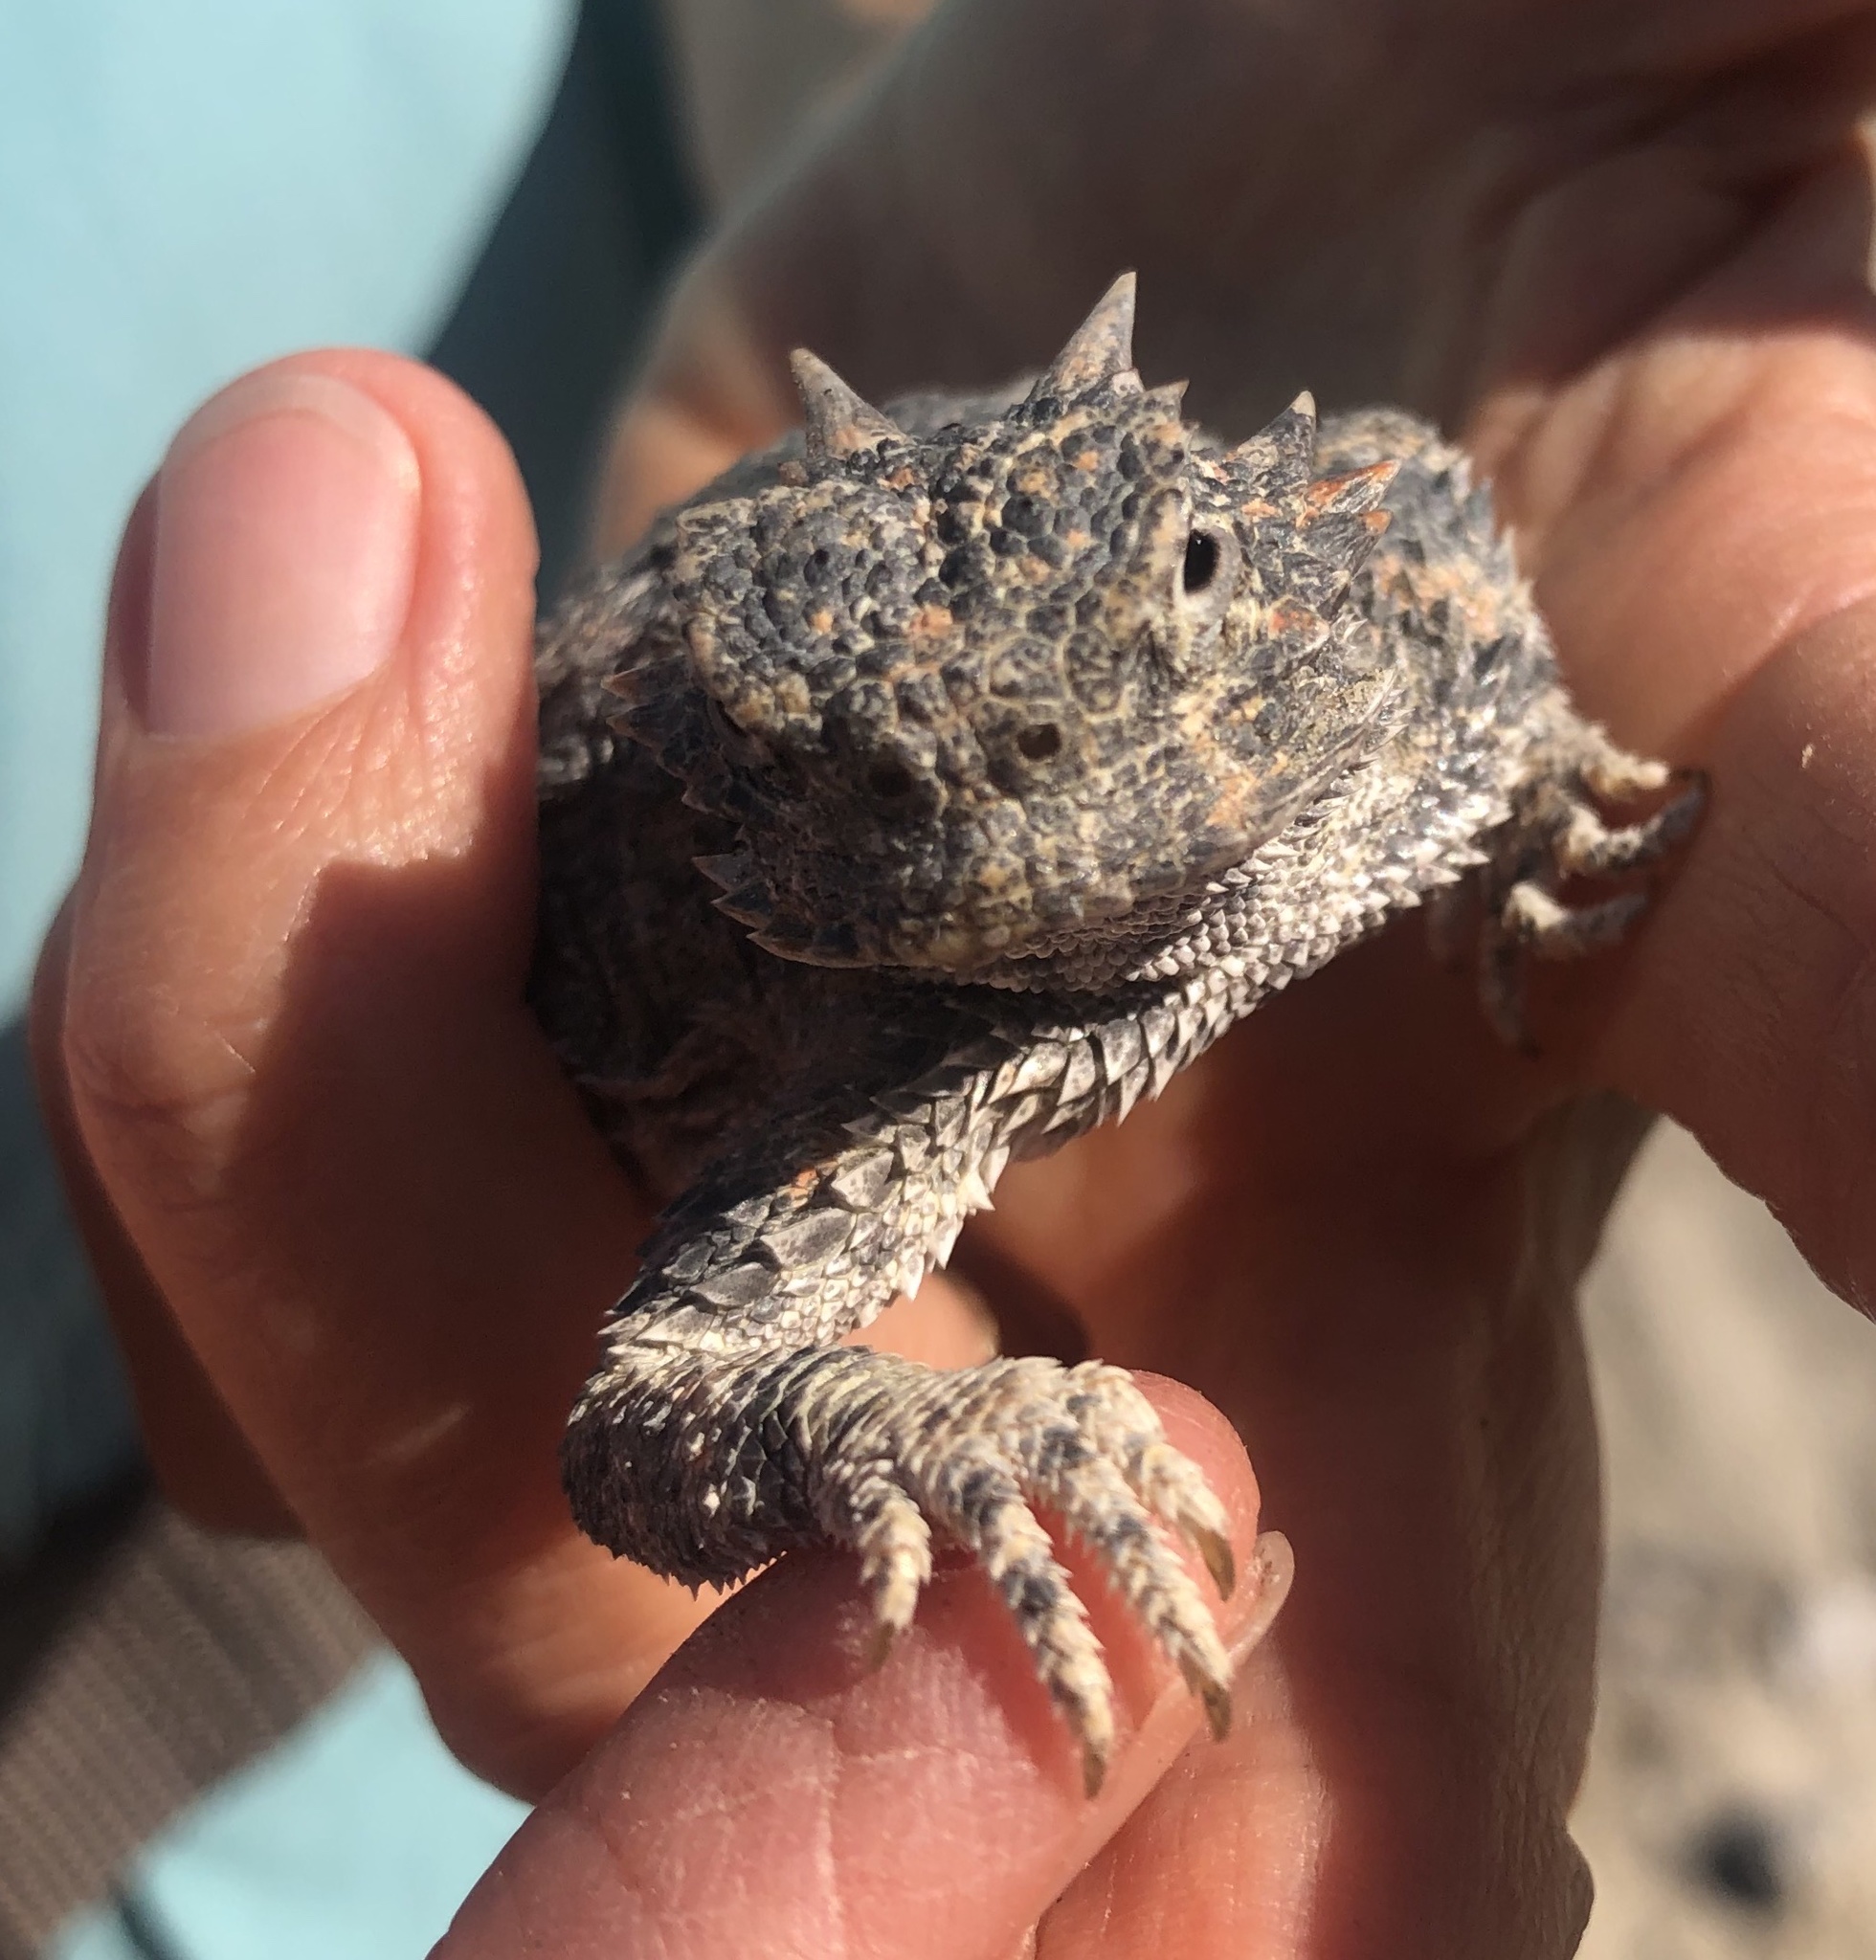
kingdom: Animalia
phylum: Chordata
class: Squamata
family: Phrynosomatidae
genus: Phrynosoma
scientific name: Phrynosoma platyrhinos
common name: Desert horned lizard
